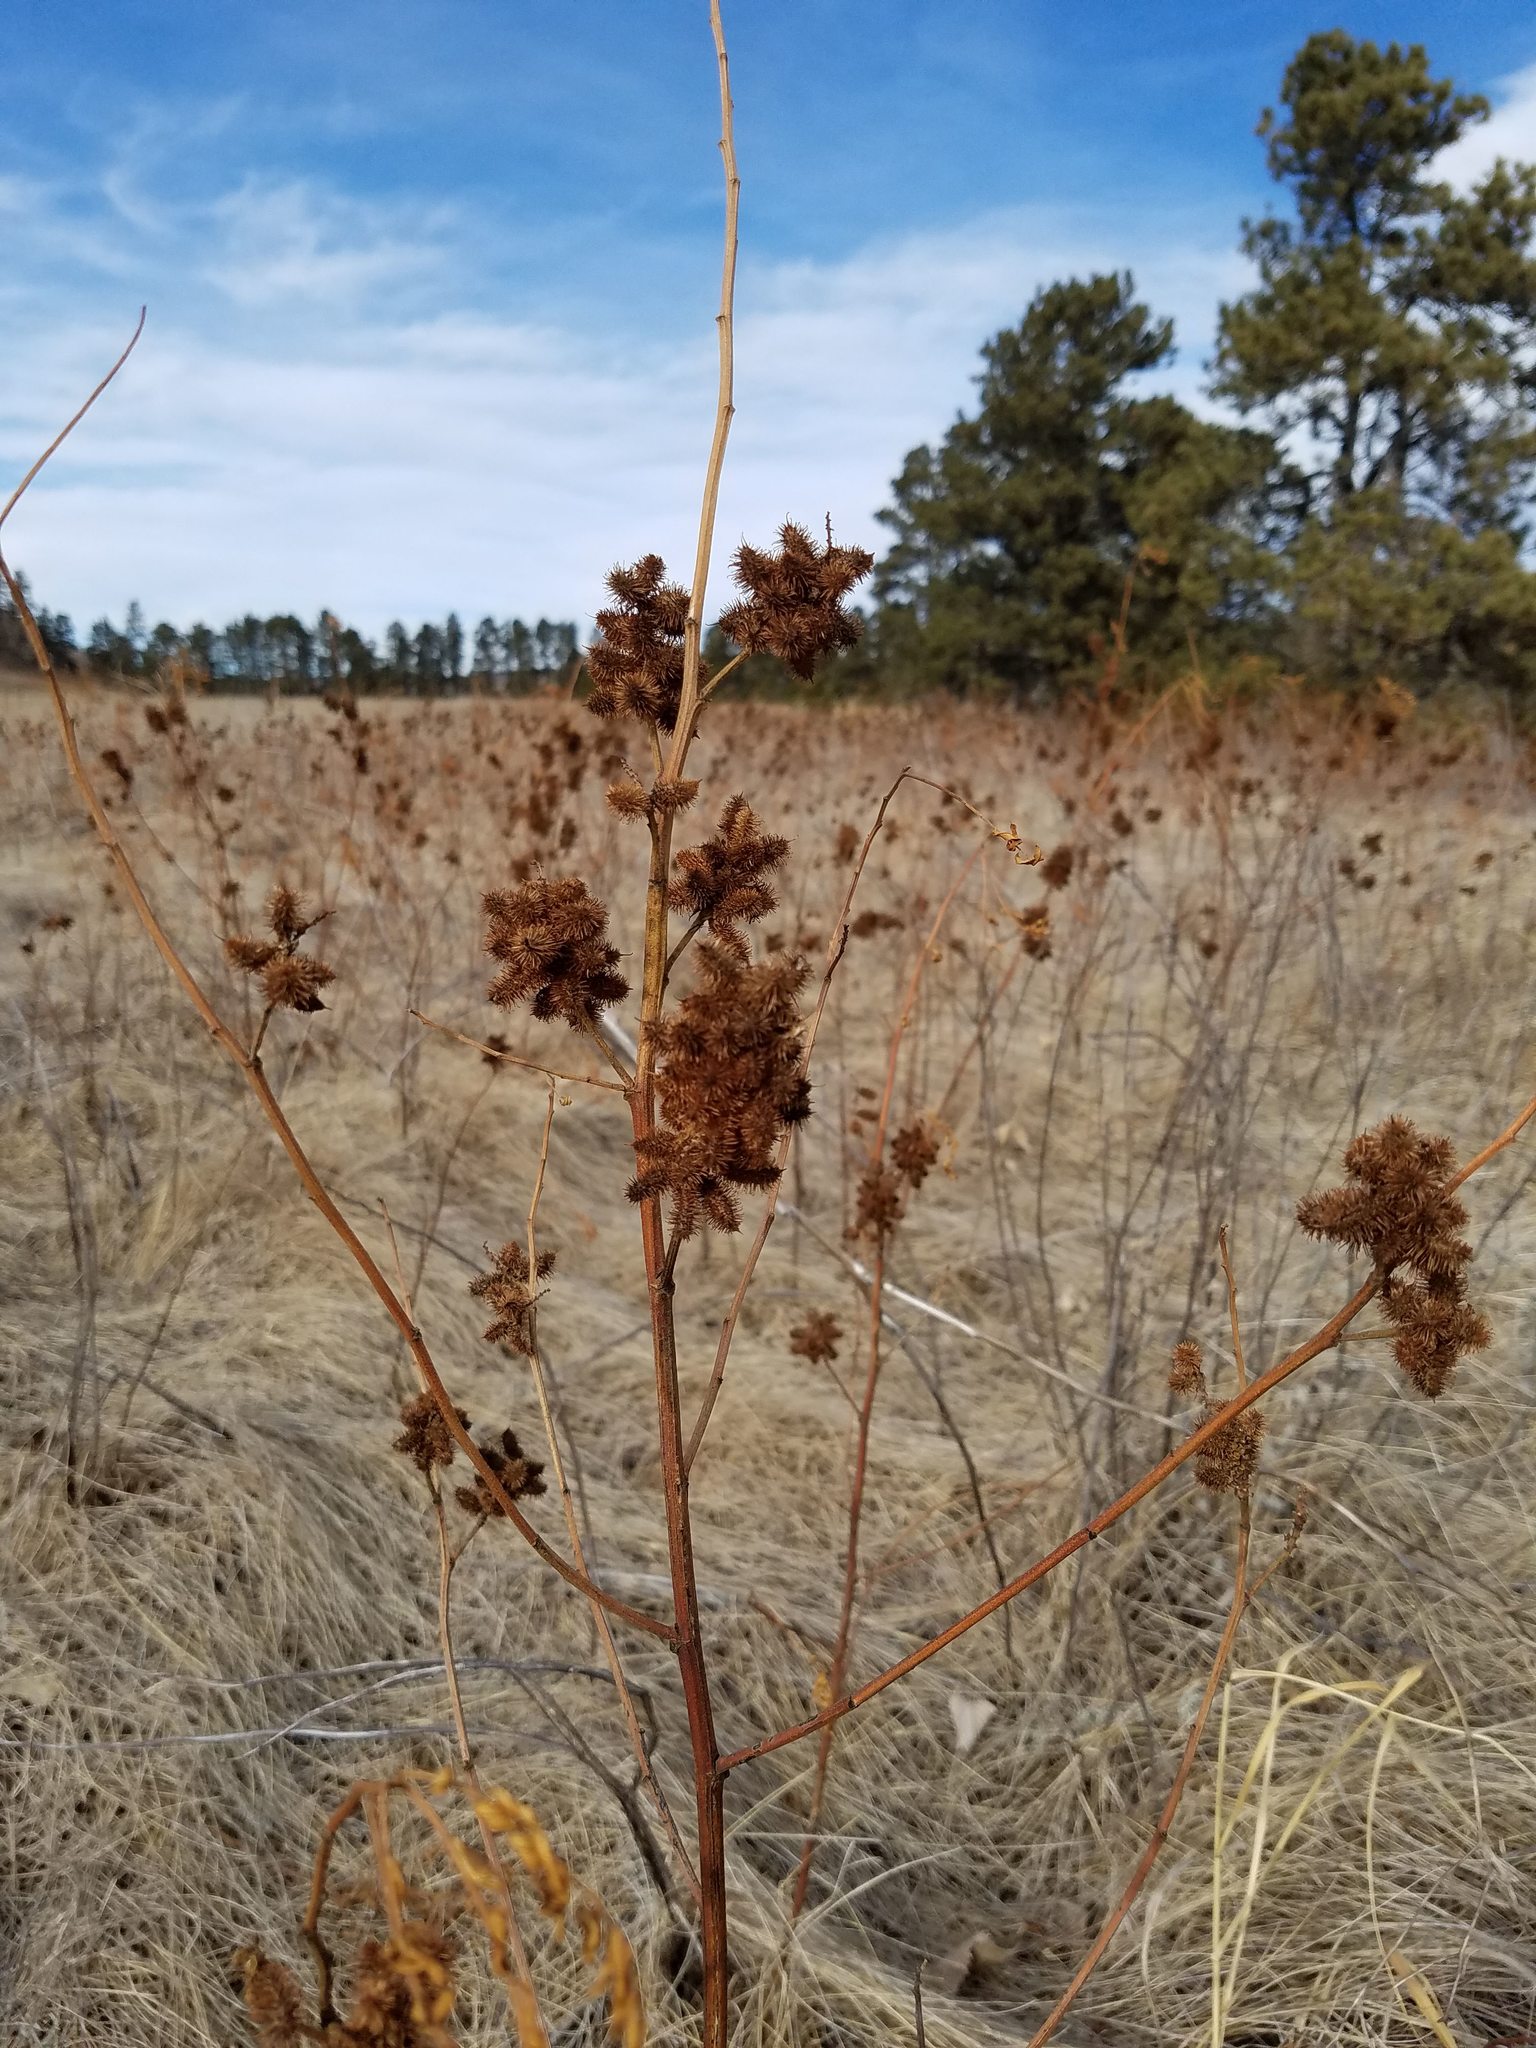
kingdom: Plantae
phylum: Tracheophyta
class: Magnoliopsida
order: Fabales
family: Fabaceae
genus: Glycyrrhiza
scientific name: Glycyrrhiza lepidota
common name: American liquorice
